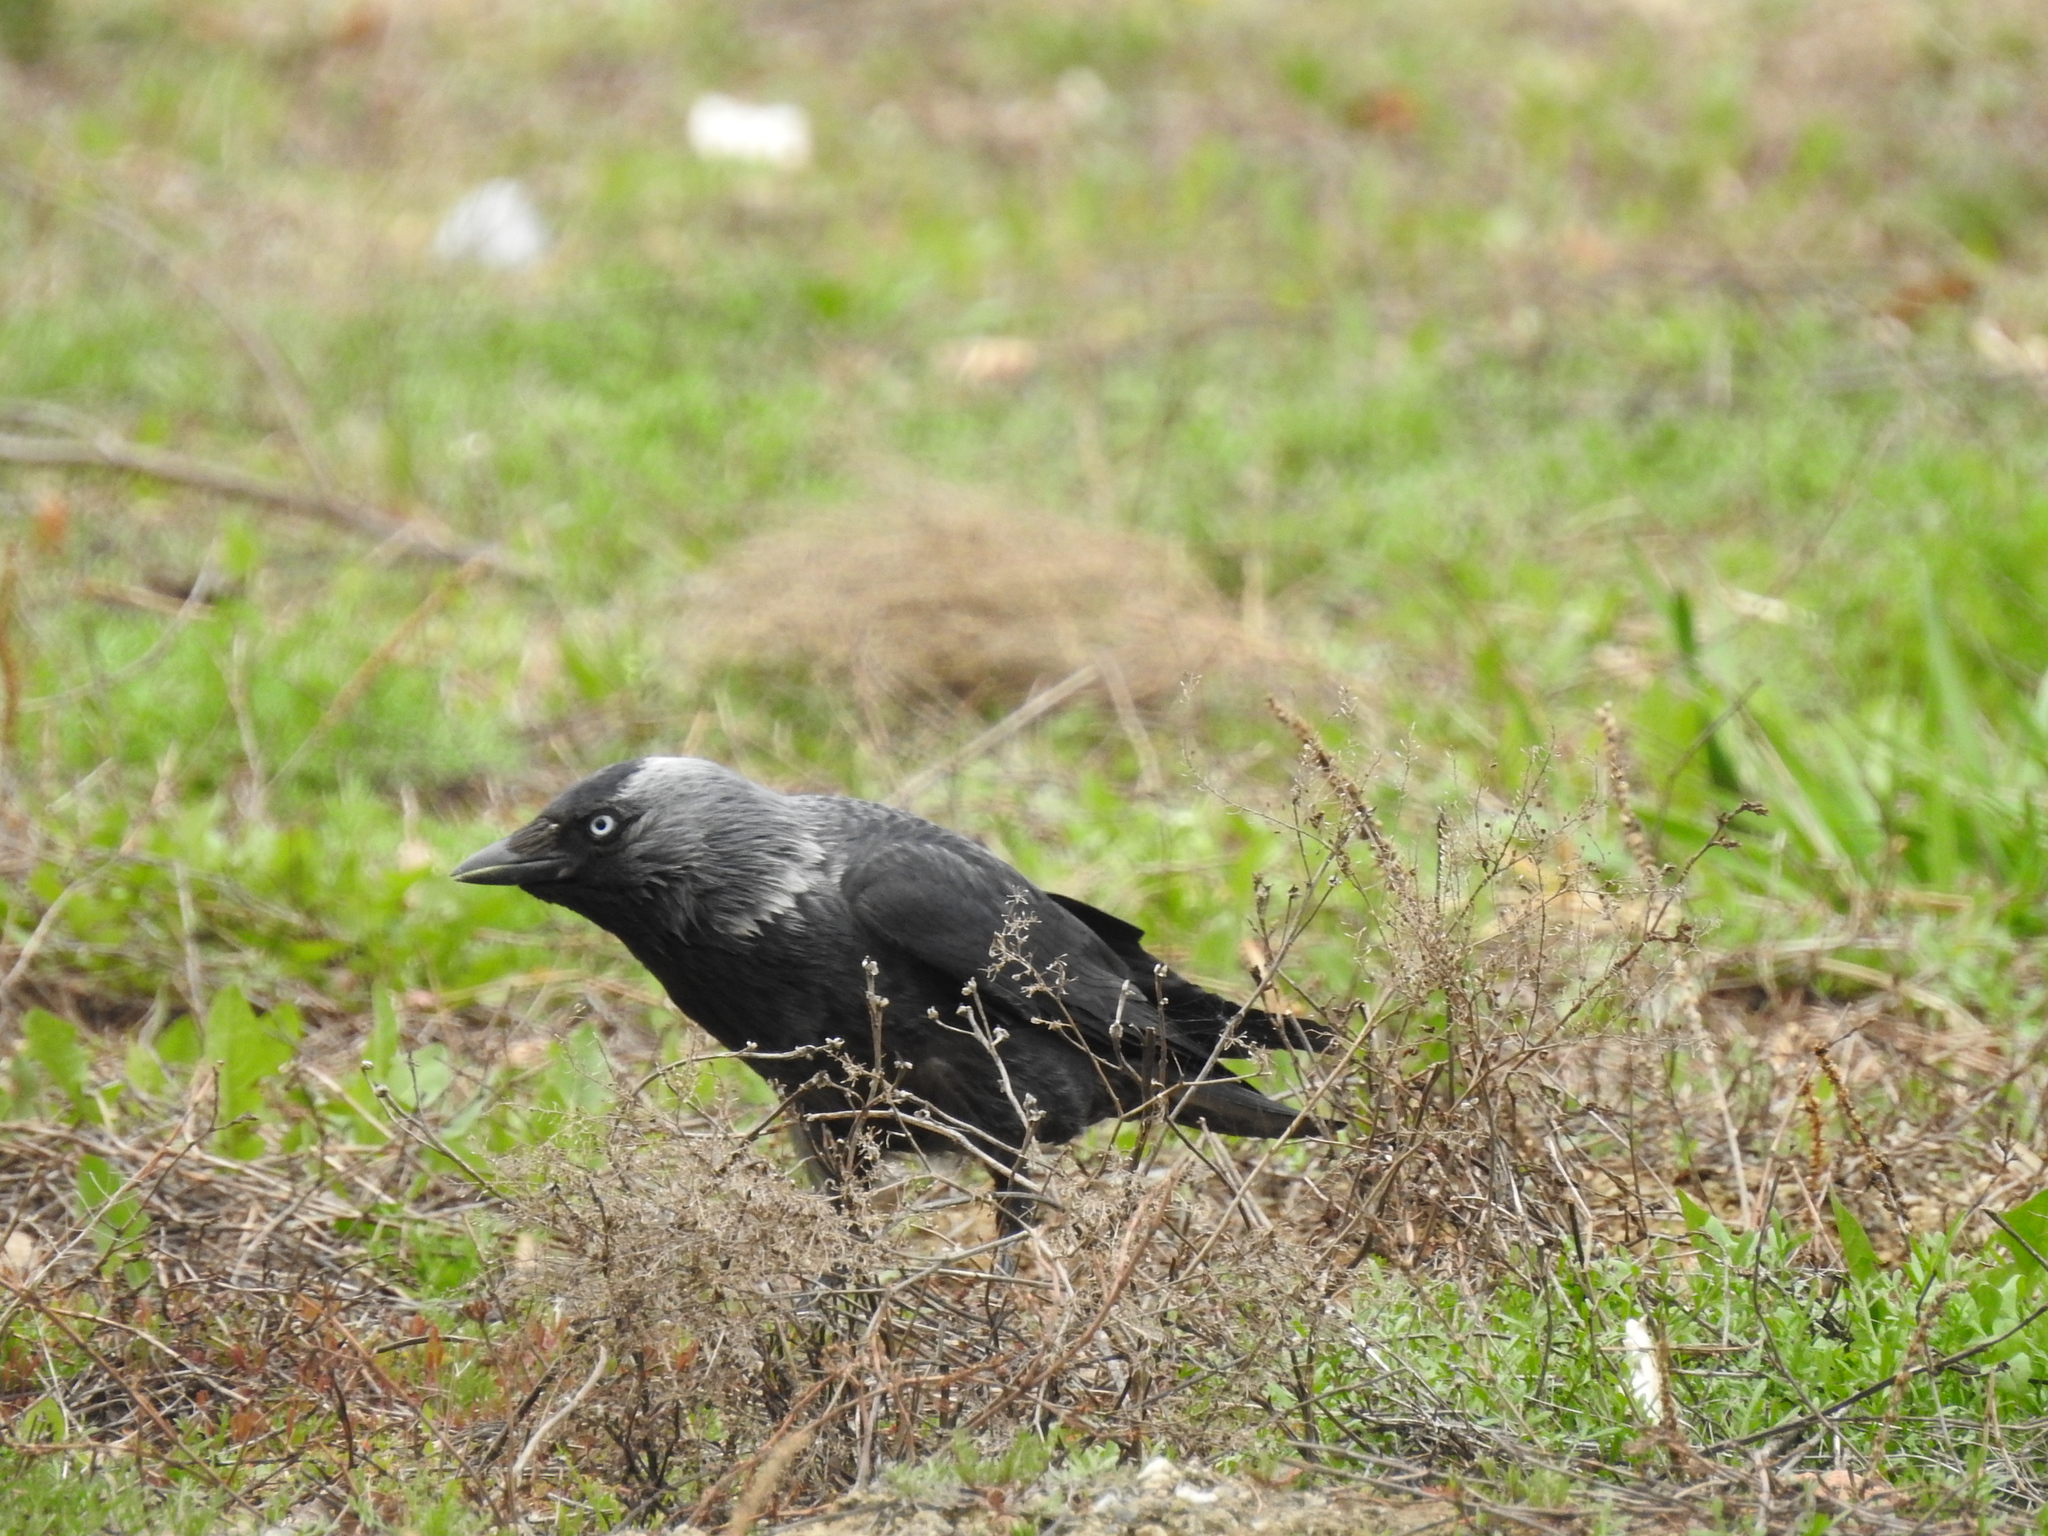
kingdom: Animalia
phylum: Chordata
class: Aves
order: Passeriformes
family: Corvidae
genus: Coloeus
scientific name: Coloeus monedula
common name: Western jackdaw
